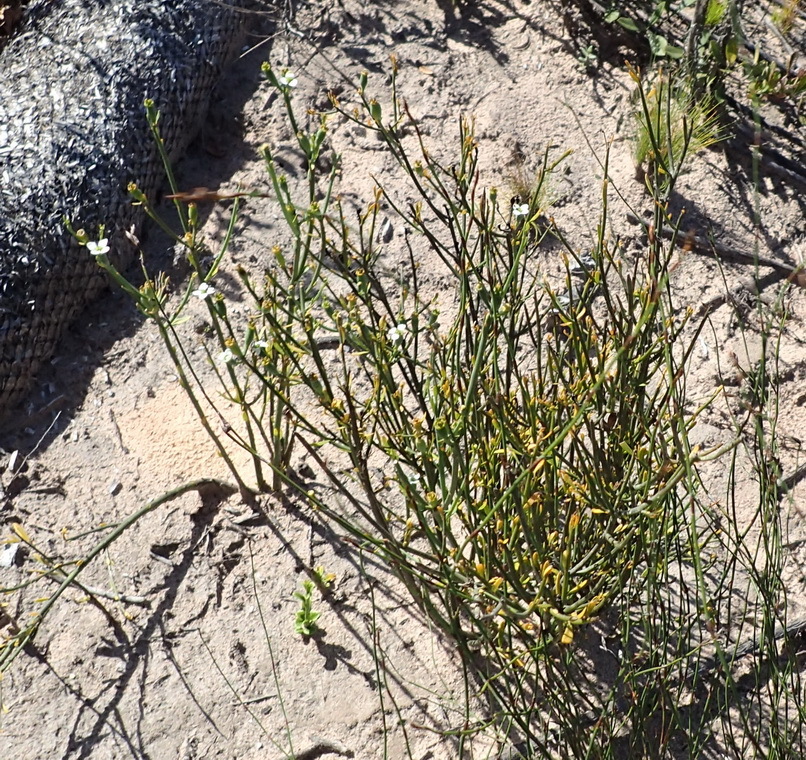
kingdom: Plantae
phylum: Tracheophyta
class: Magnoliopsida
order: Solanales
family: Montiniaceae
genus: Montinia
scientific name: Montinia caryophyllacea
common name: Wild clove-bush
